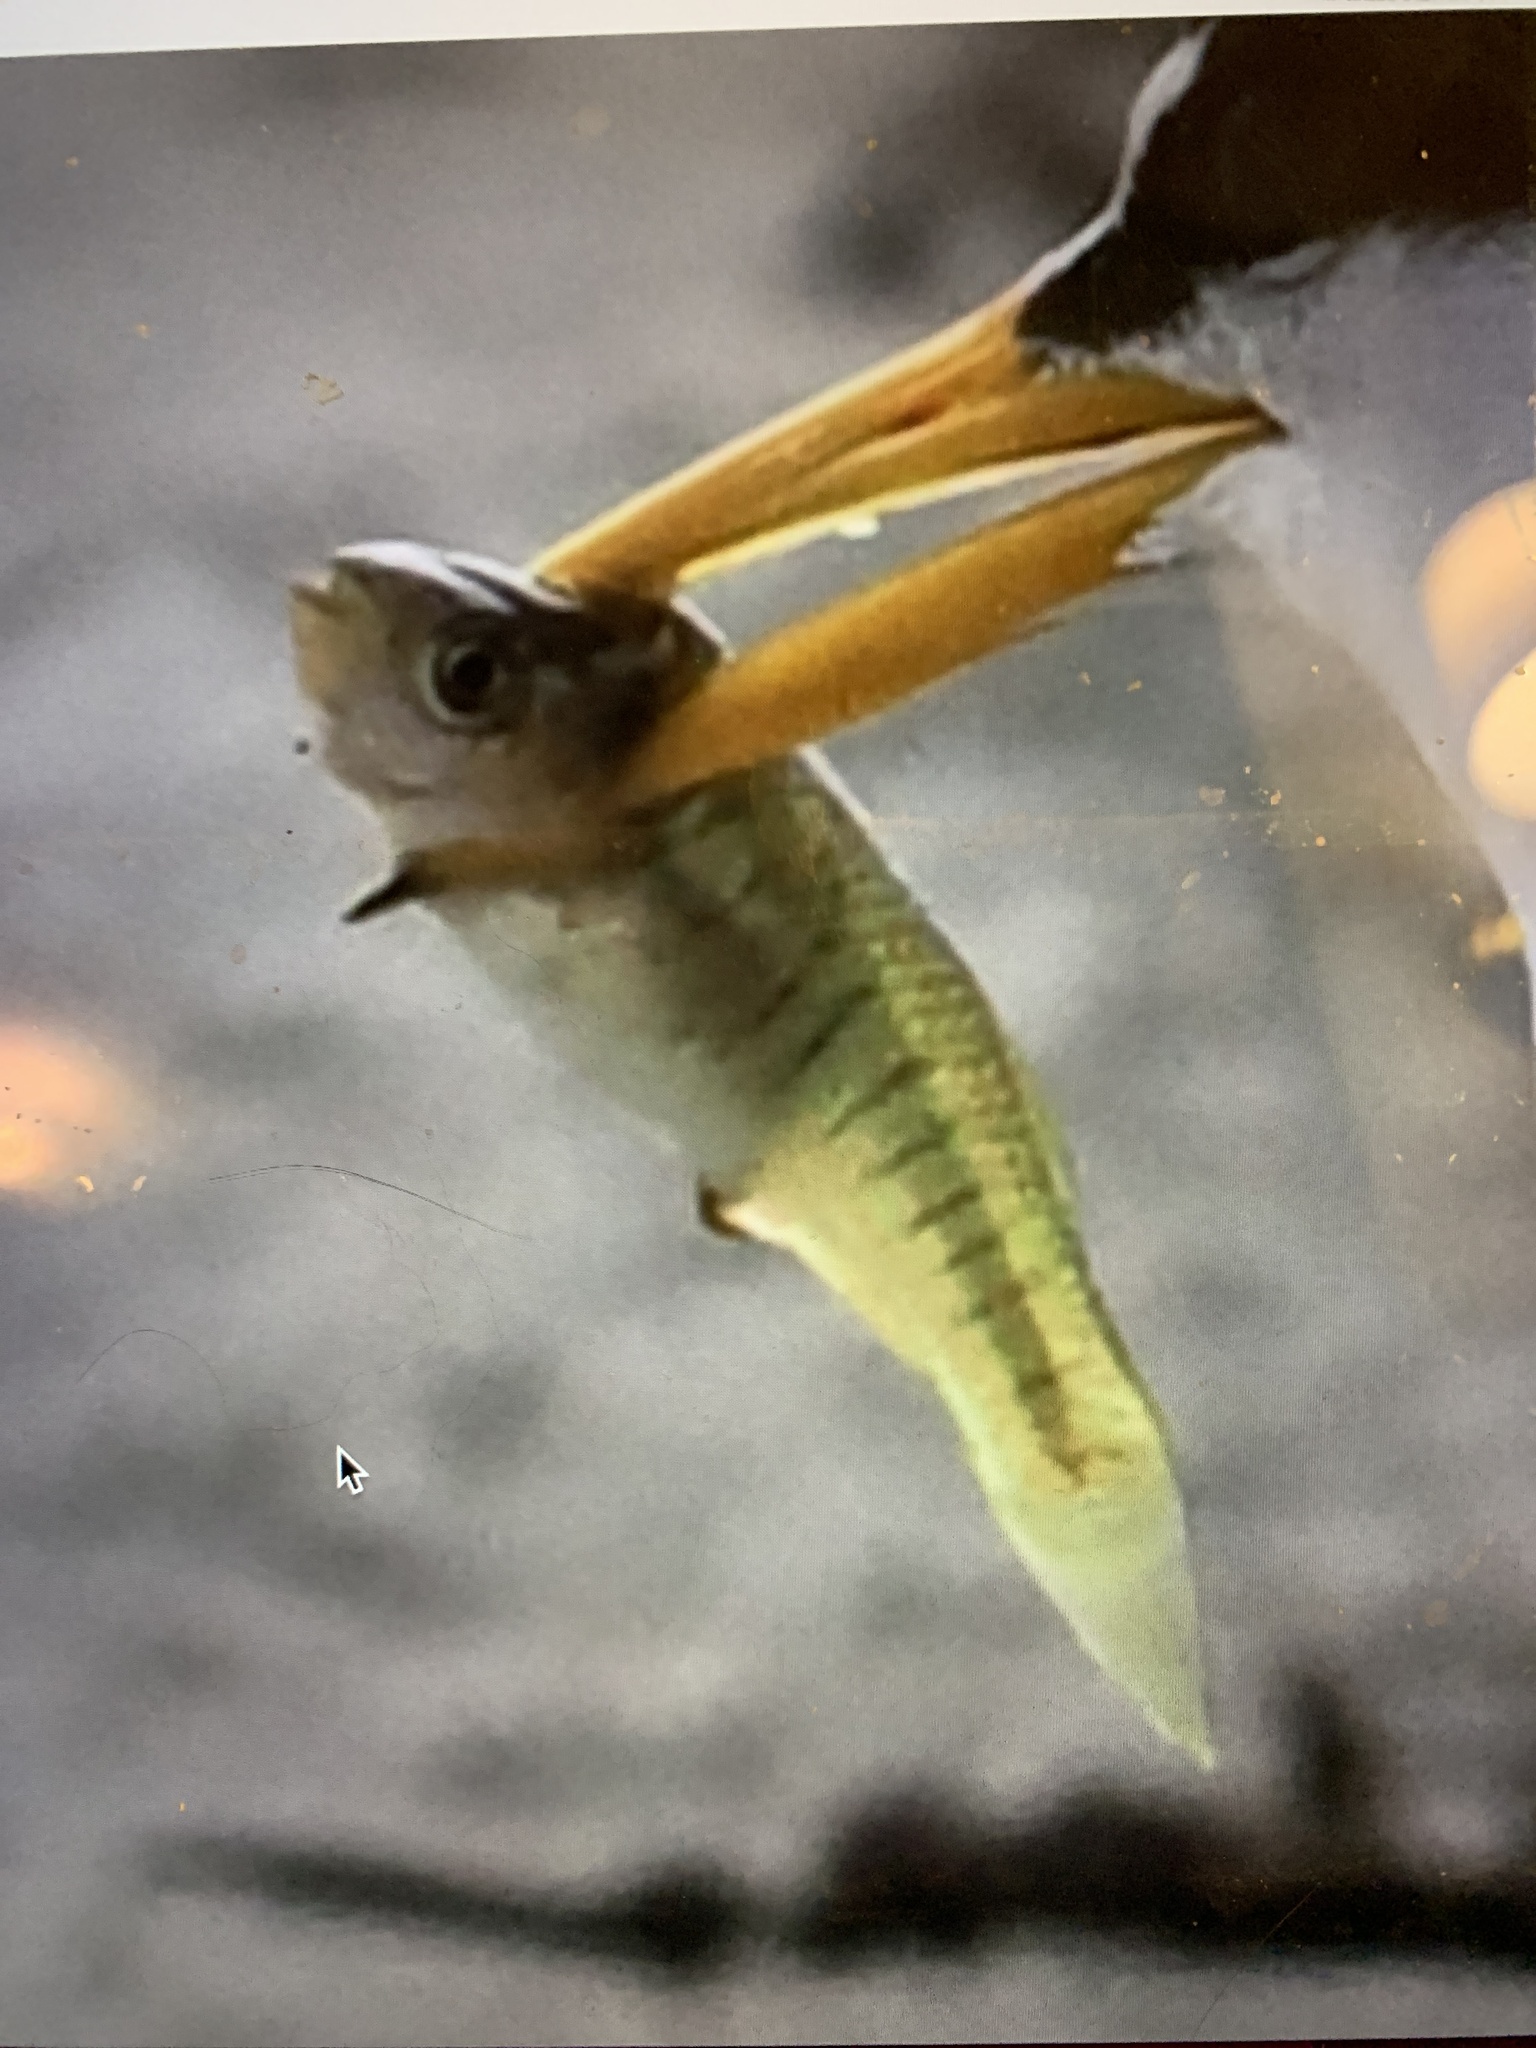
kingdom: Animalia
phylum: Chordata
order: Cyprinodontiformes
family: Fundulidae
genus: Fundulus
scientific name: Fundulus heteroclitus
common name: Mummichog
